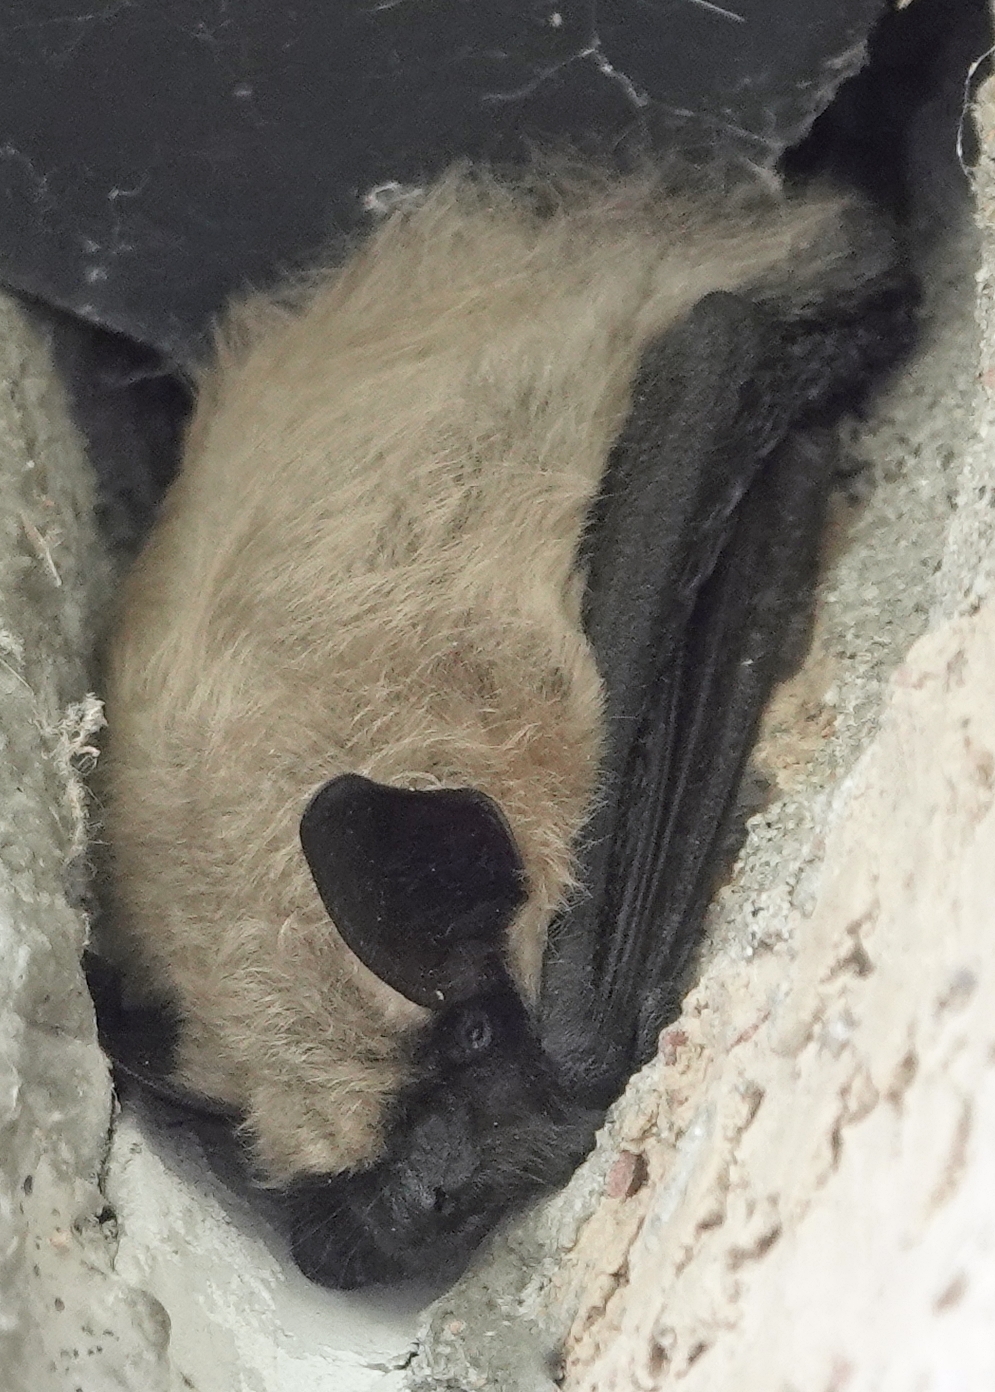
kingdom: Animalia
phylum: Chordata
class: Mammalia
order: Chiroptera
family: Vespertilionidae
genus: Myotis
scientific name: Myotis ciliolabrum
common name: Western small-footed myotis
